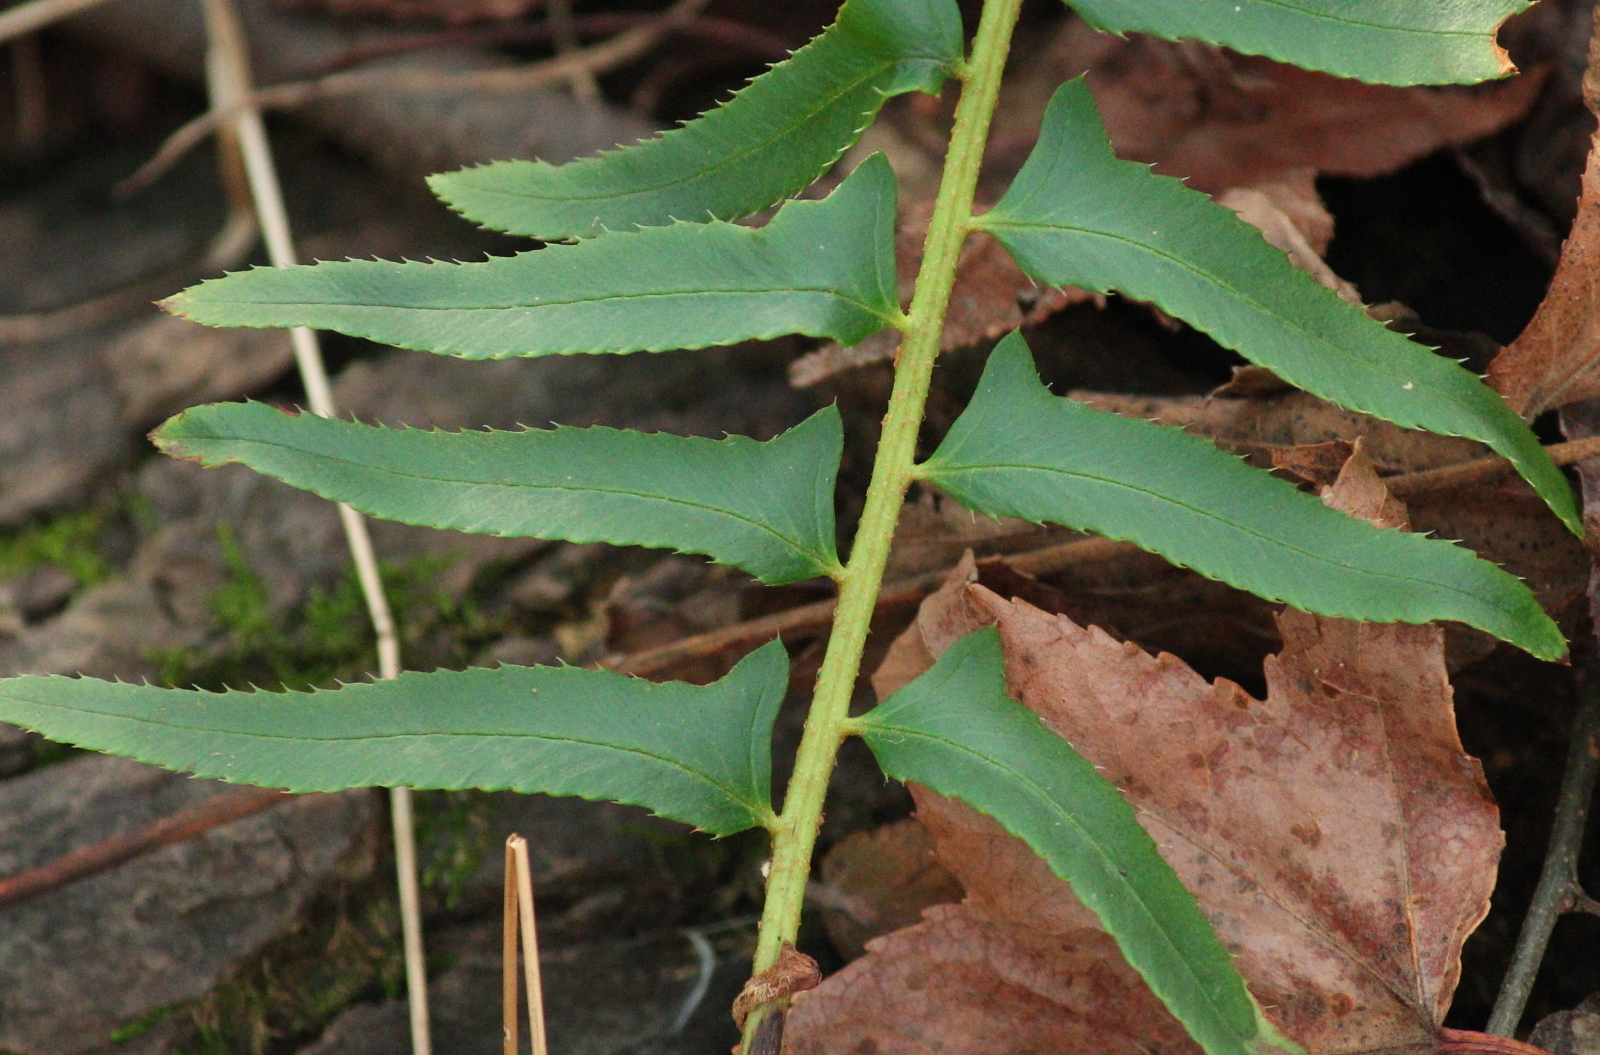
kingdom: Plantae
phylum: Tracheophyta
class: Polypodiopsida
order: Polypodiales
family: Dryopteridaceae
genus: Polystichum
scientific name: Polystichum acrostichoides
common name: Christmas fern
